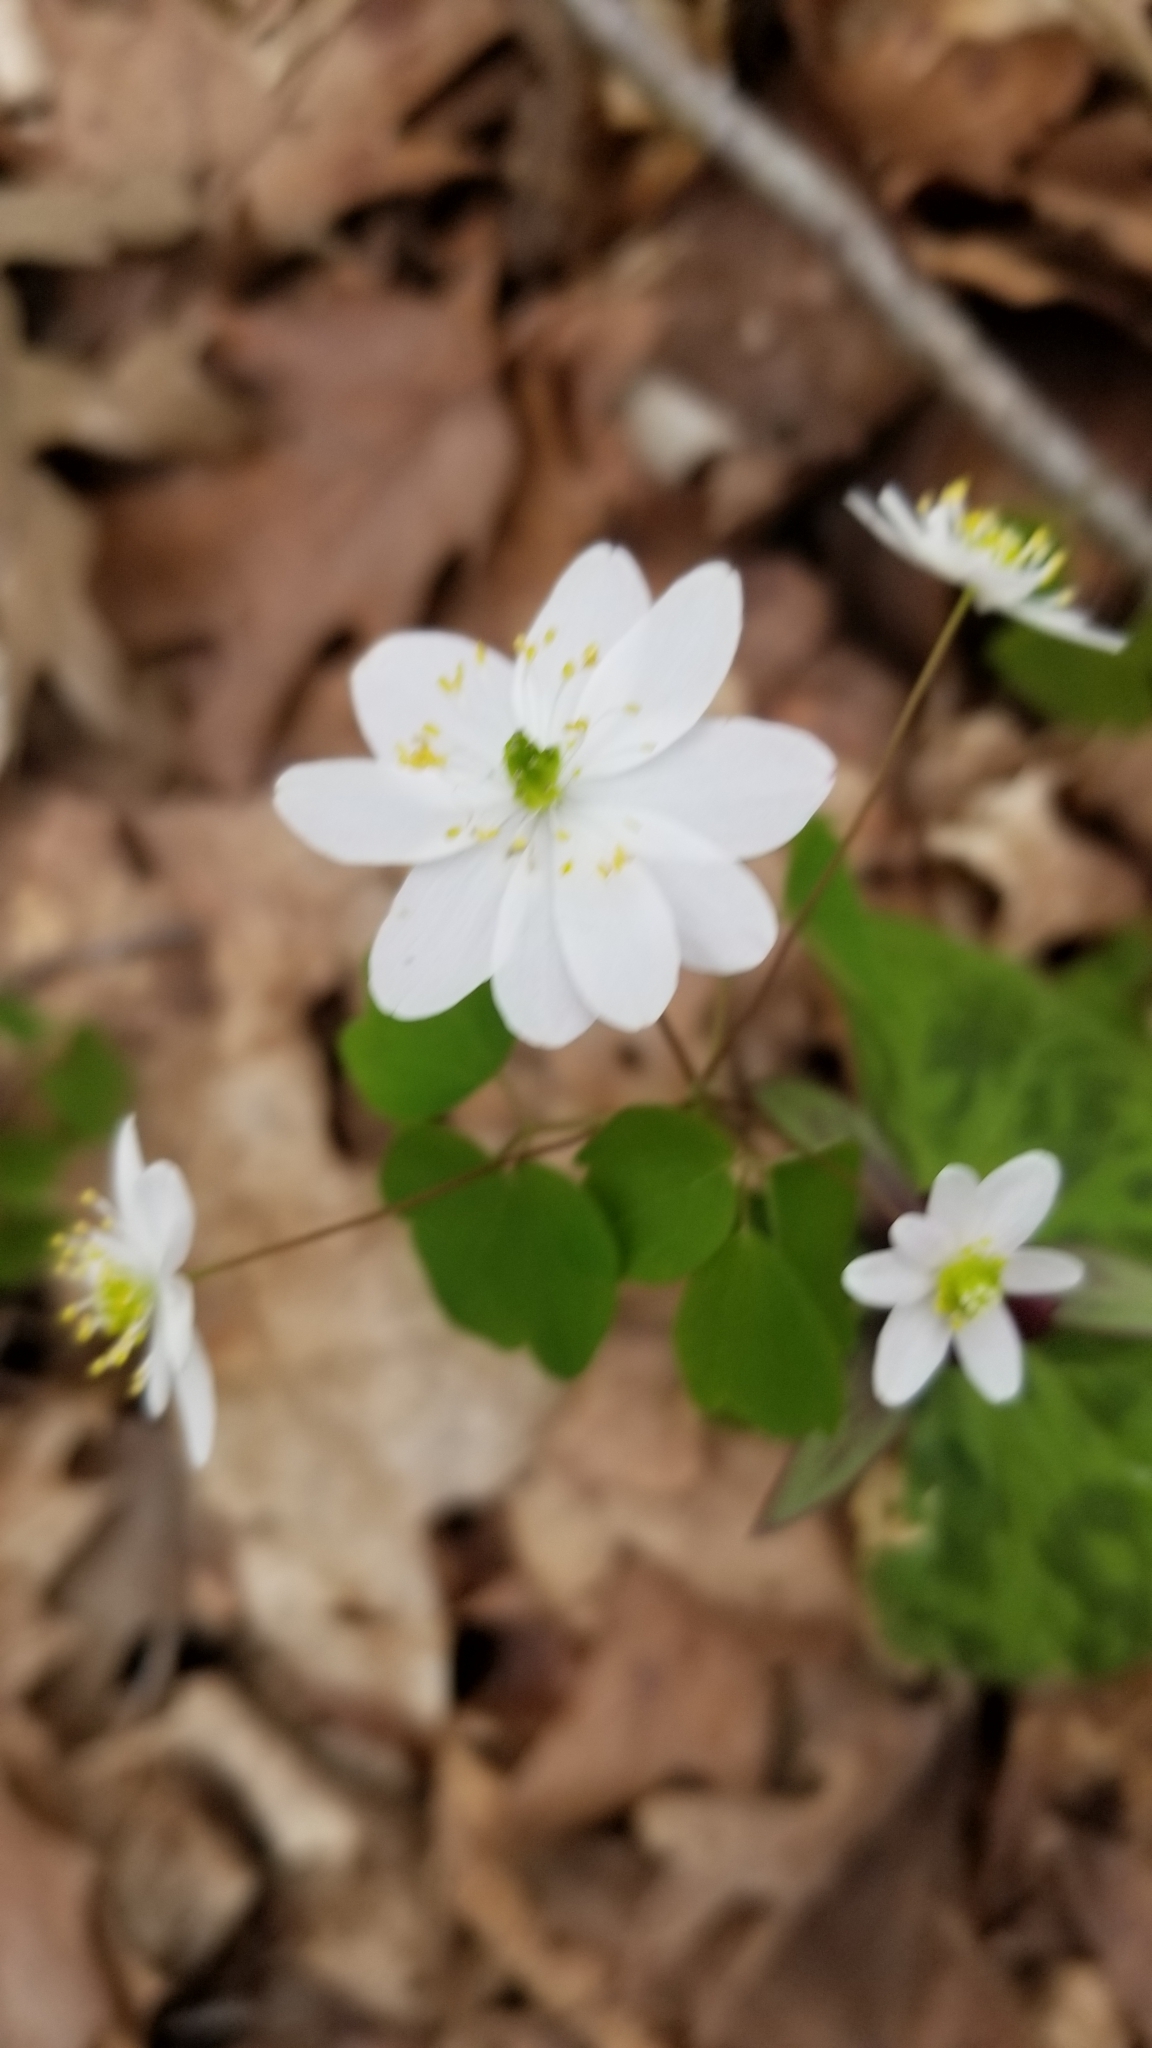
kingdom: Plantae
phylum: Tracheophyta
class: Magnoliopsida
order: Ranunculales
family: Ranunculaceae
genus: Thalictrum
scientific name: Thalictrum thalictroides
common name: Rue-anemone
